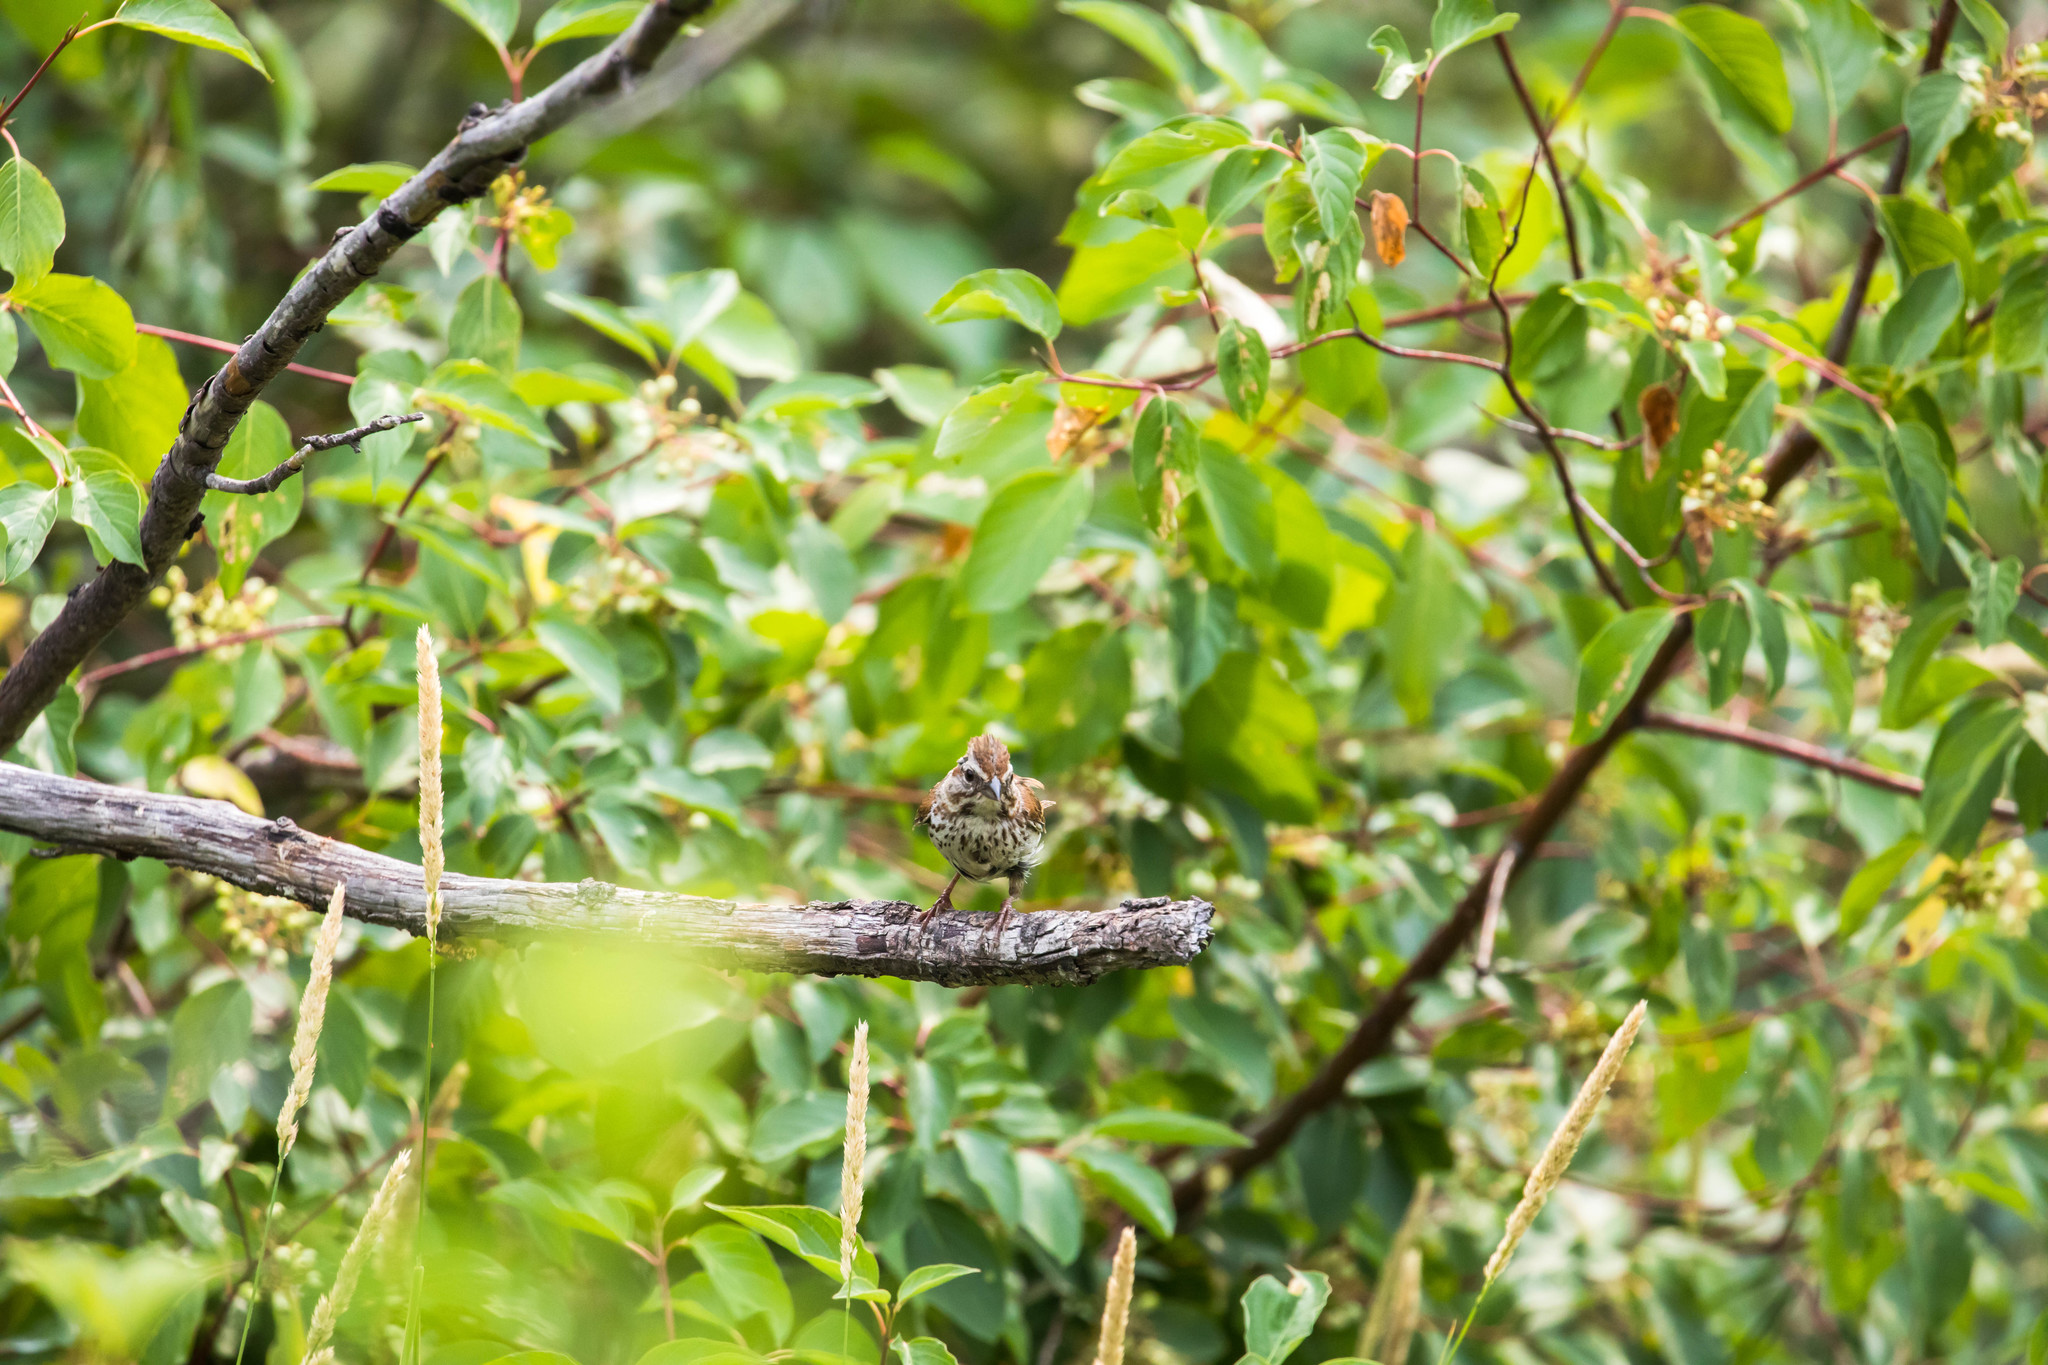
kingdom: Animalia
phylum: Chordata
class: Aves
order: Passeriformes
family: Passerellidae
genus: Melospiza
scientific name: Melospiza melodia
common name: Song sparrow
